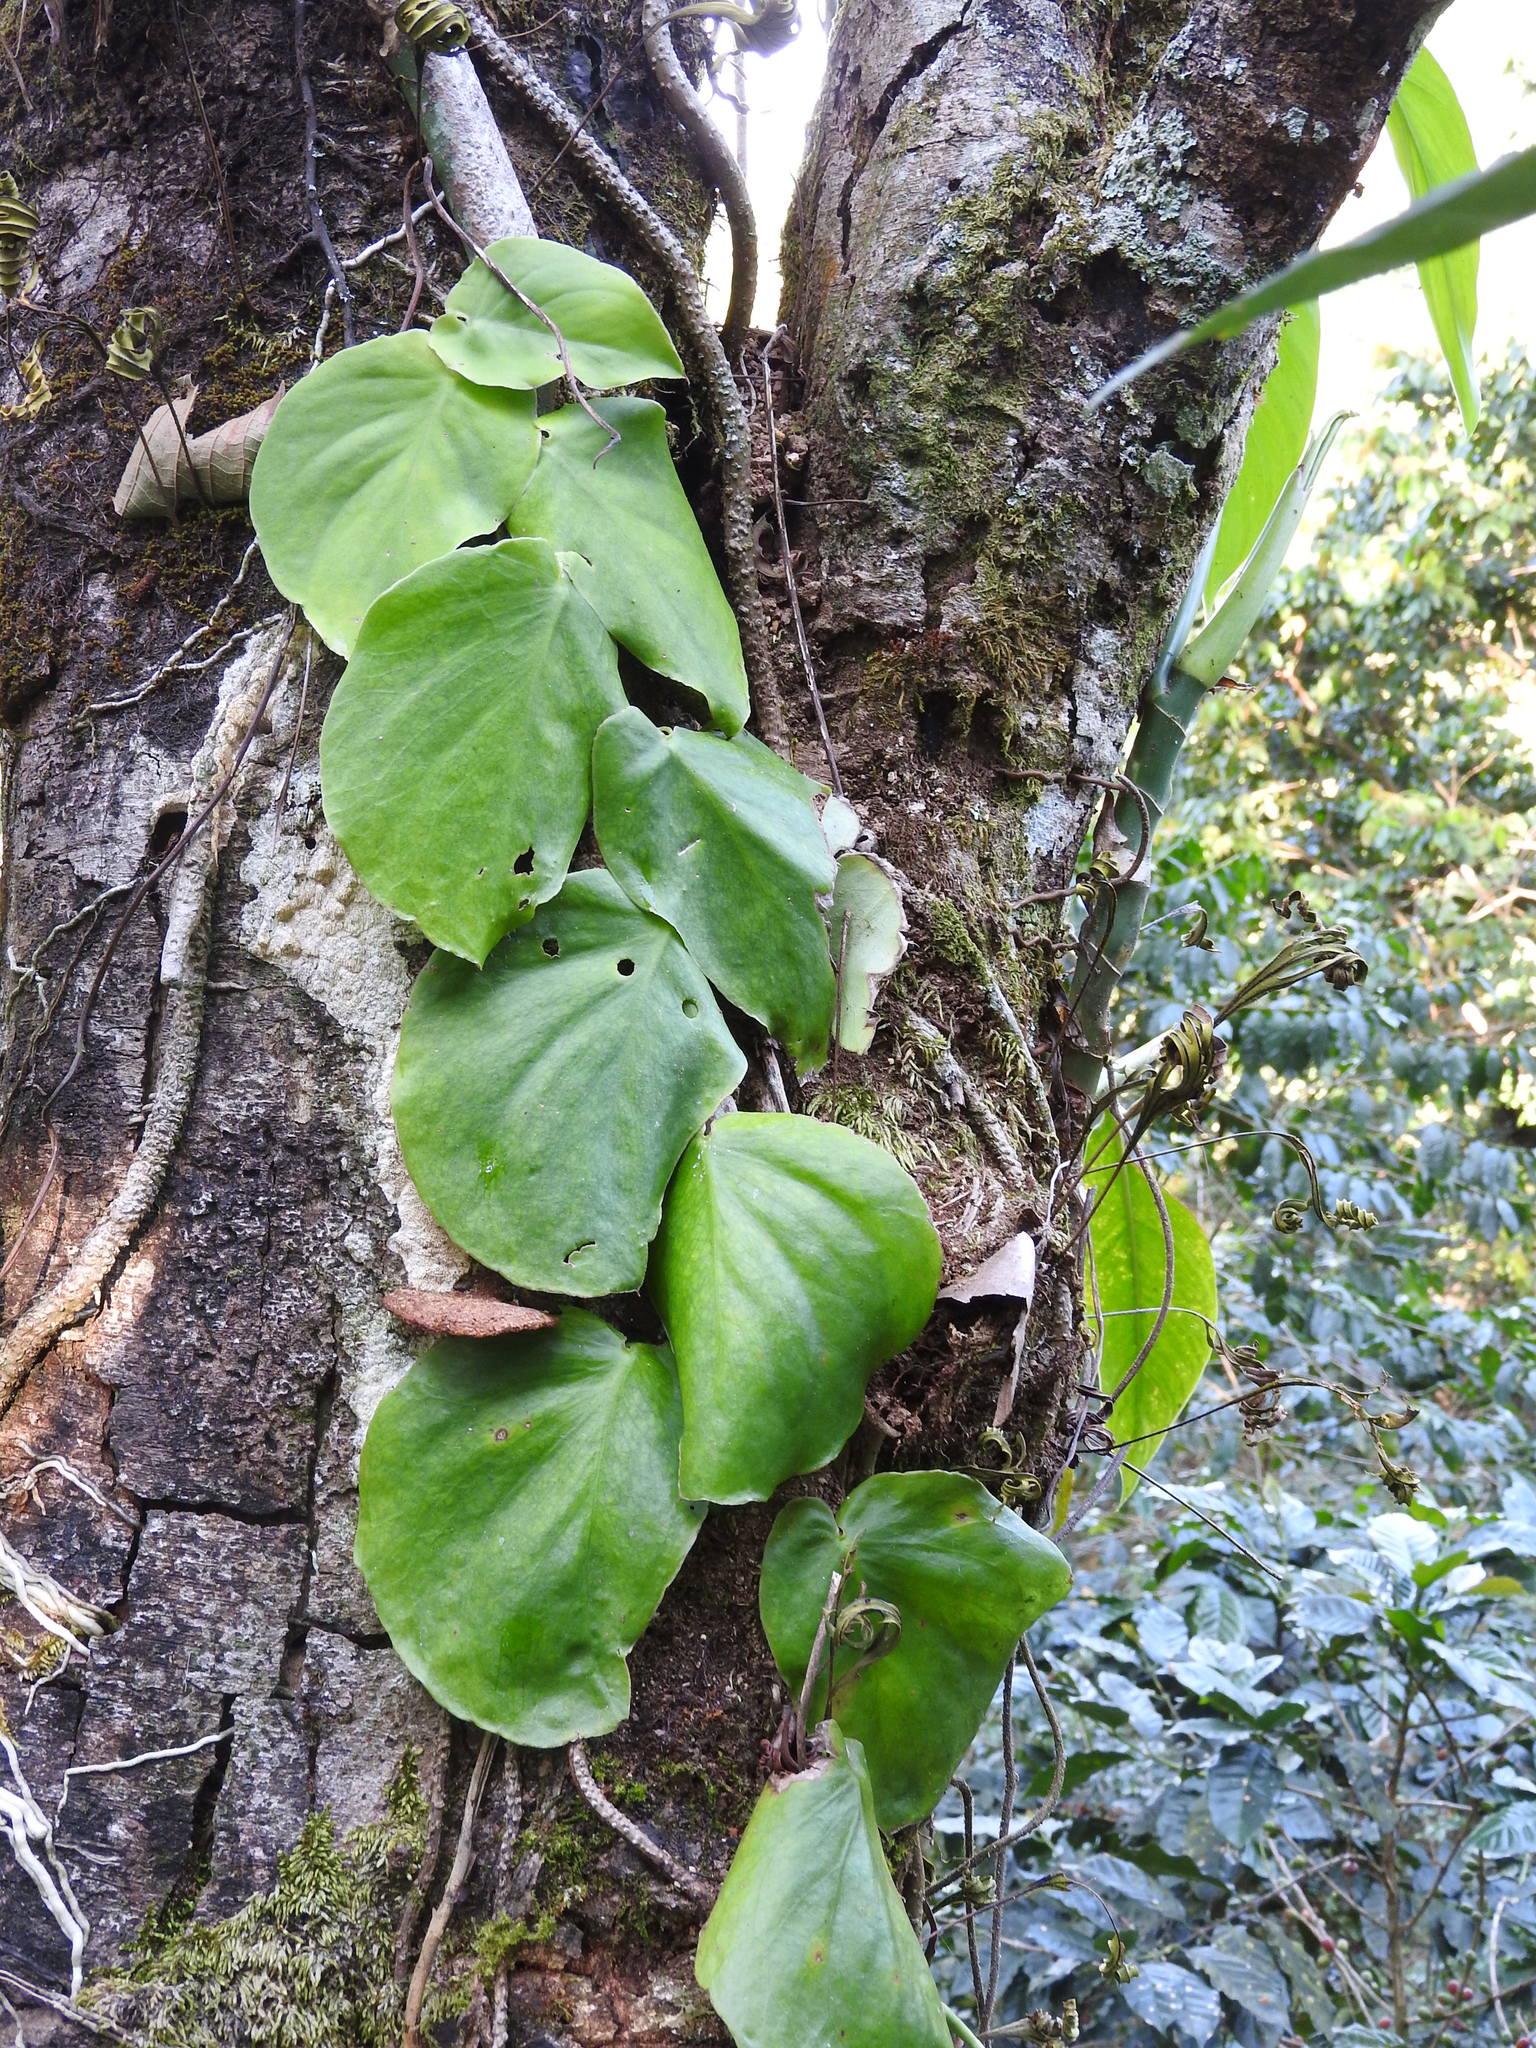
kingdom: Plantae
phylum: Tracheophyta
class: Liliopsida
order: Alismatales
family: Araceae
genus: Monstera
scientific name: Monstera acuminata
